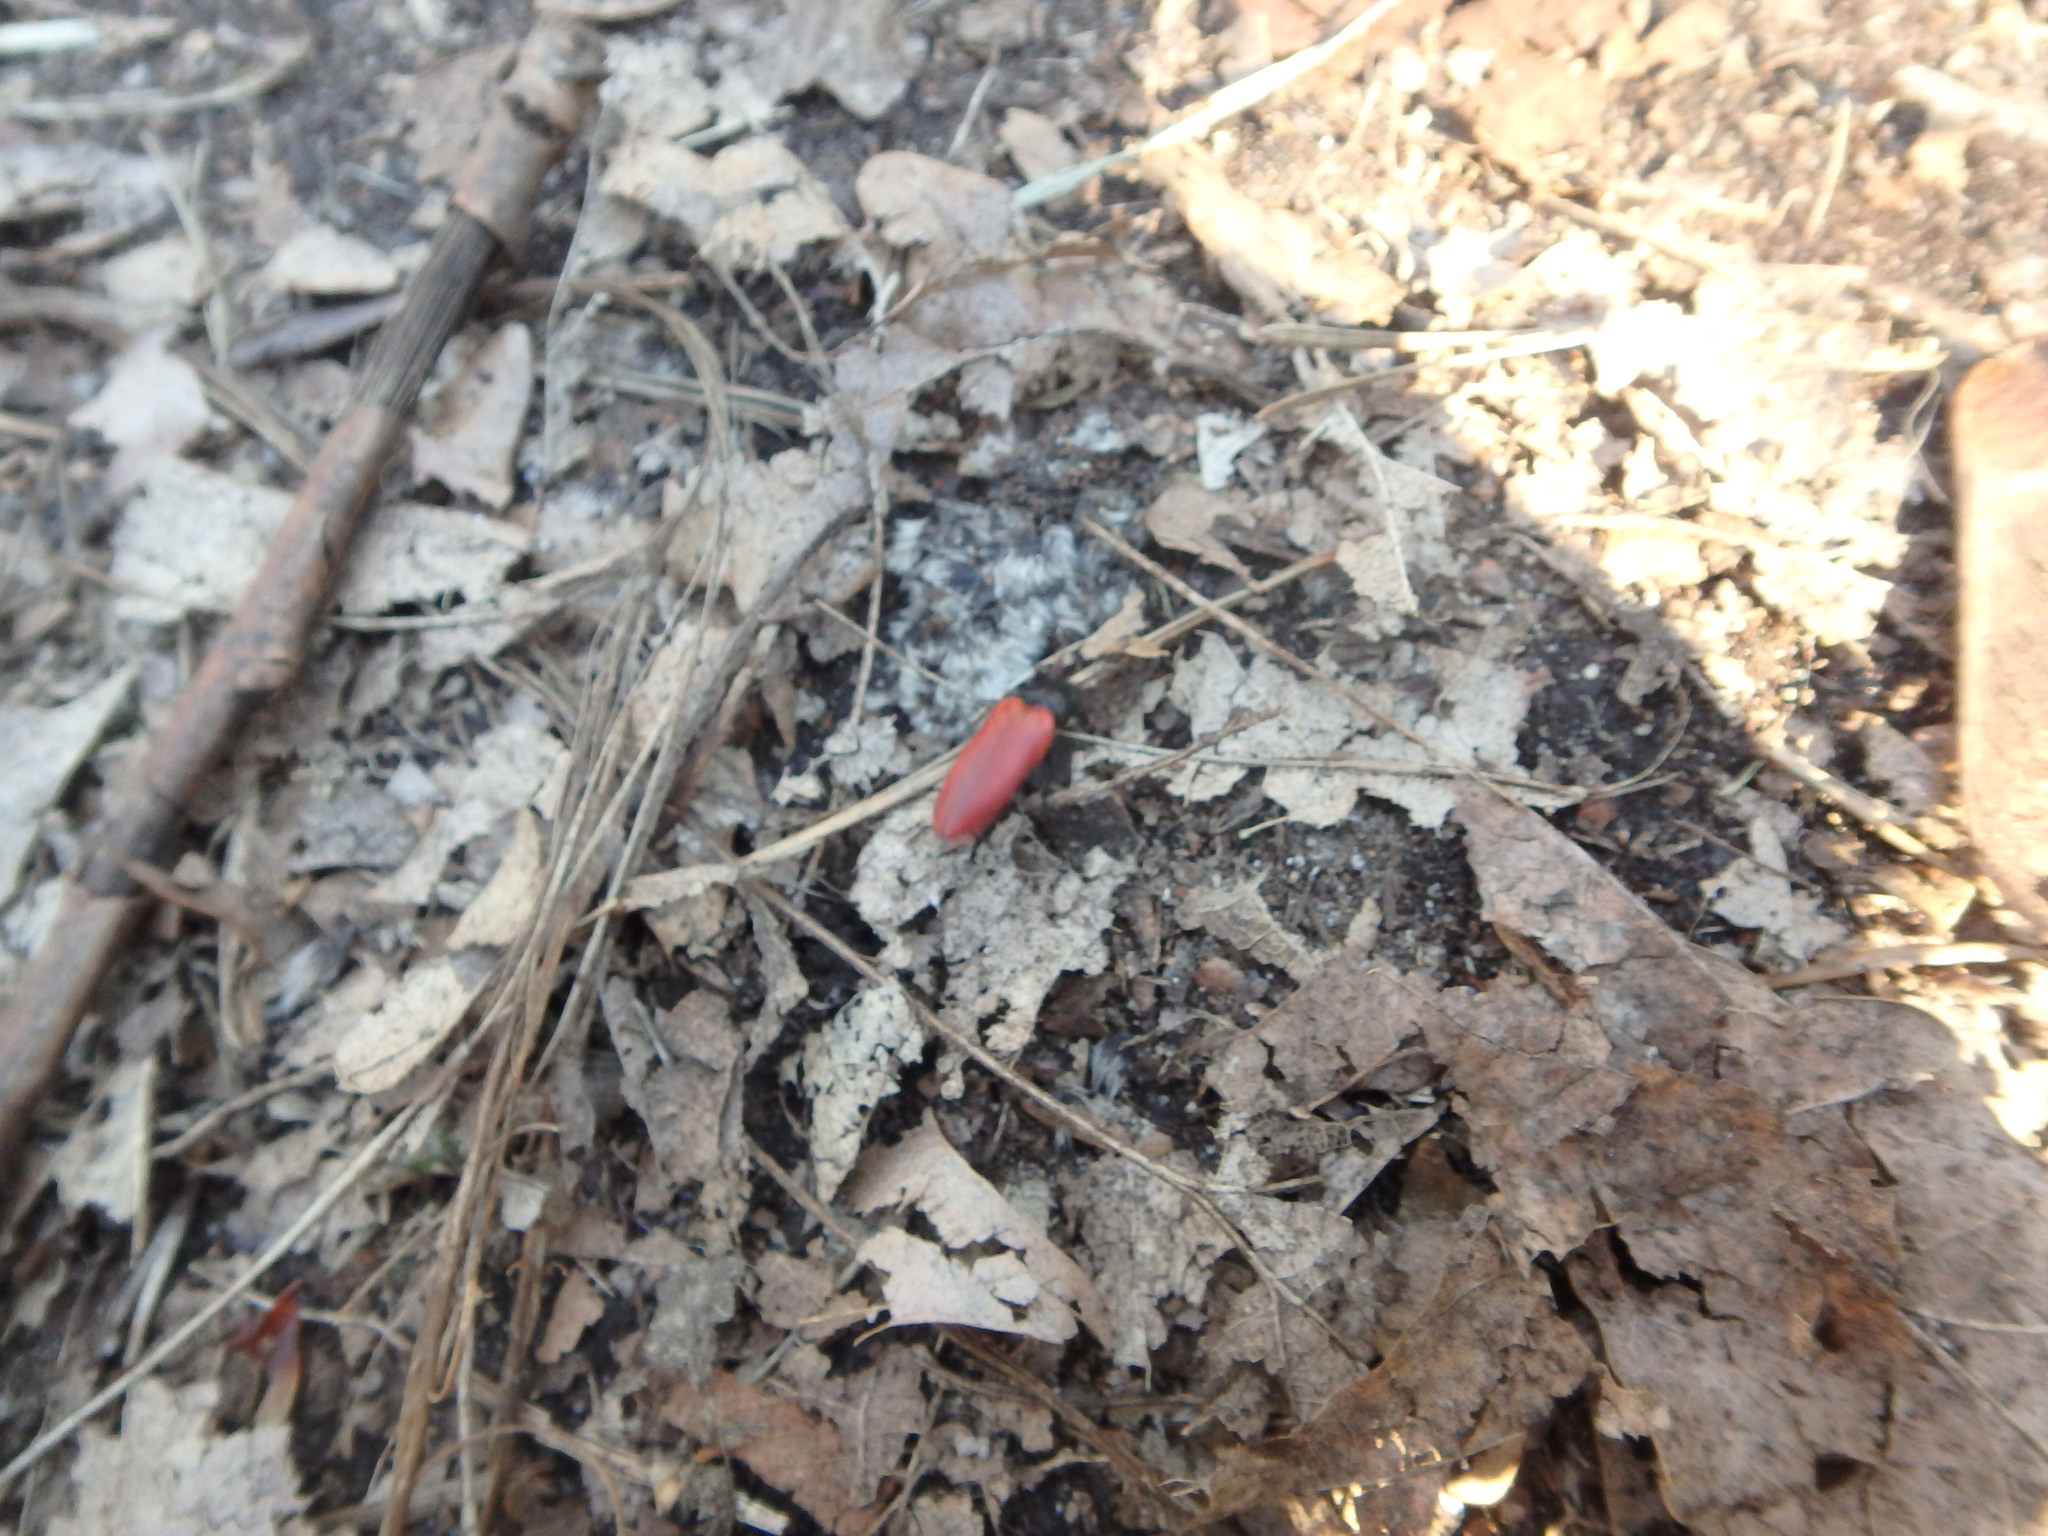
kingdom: Animalia
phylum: Arthropoda
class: Insecta
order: Coleoptera
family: Elateridae
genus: Ampedus
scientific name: Ampedus
